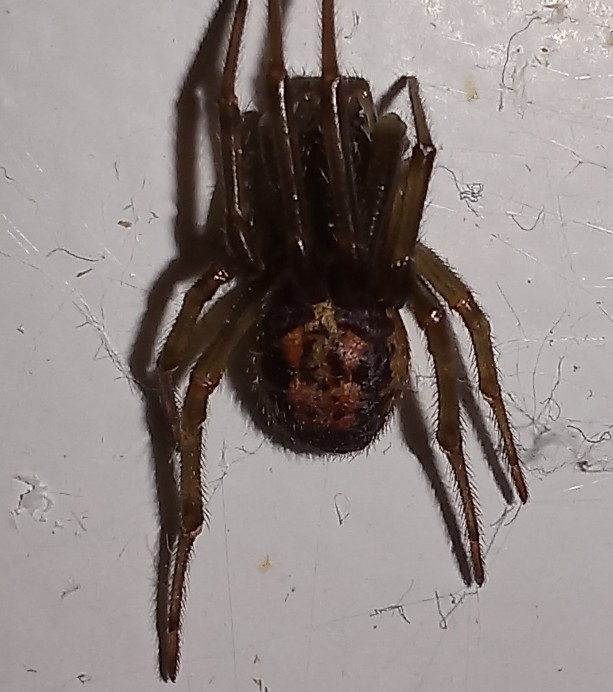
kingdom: Animalia
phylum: Arthropoda
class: Arachnida
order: Araneae
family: Theridiidae
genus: Steatoda
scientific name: Steatoda nobilis
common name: Cobweb weaver
